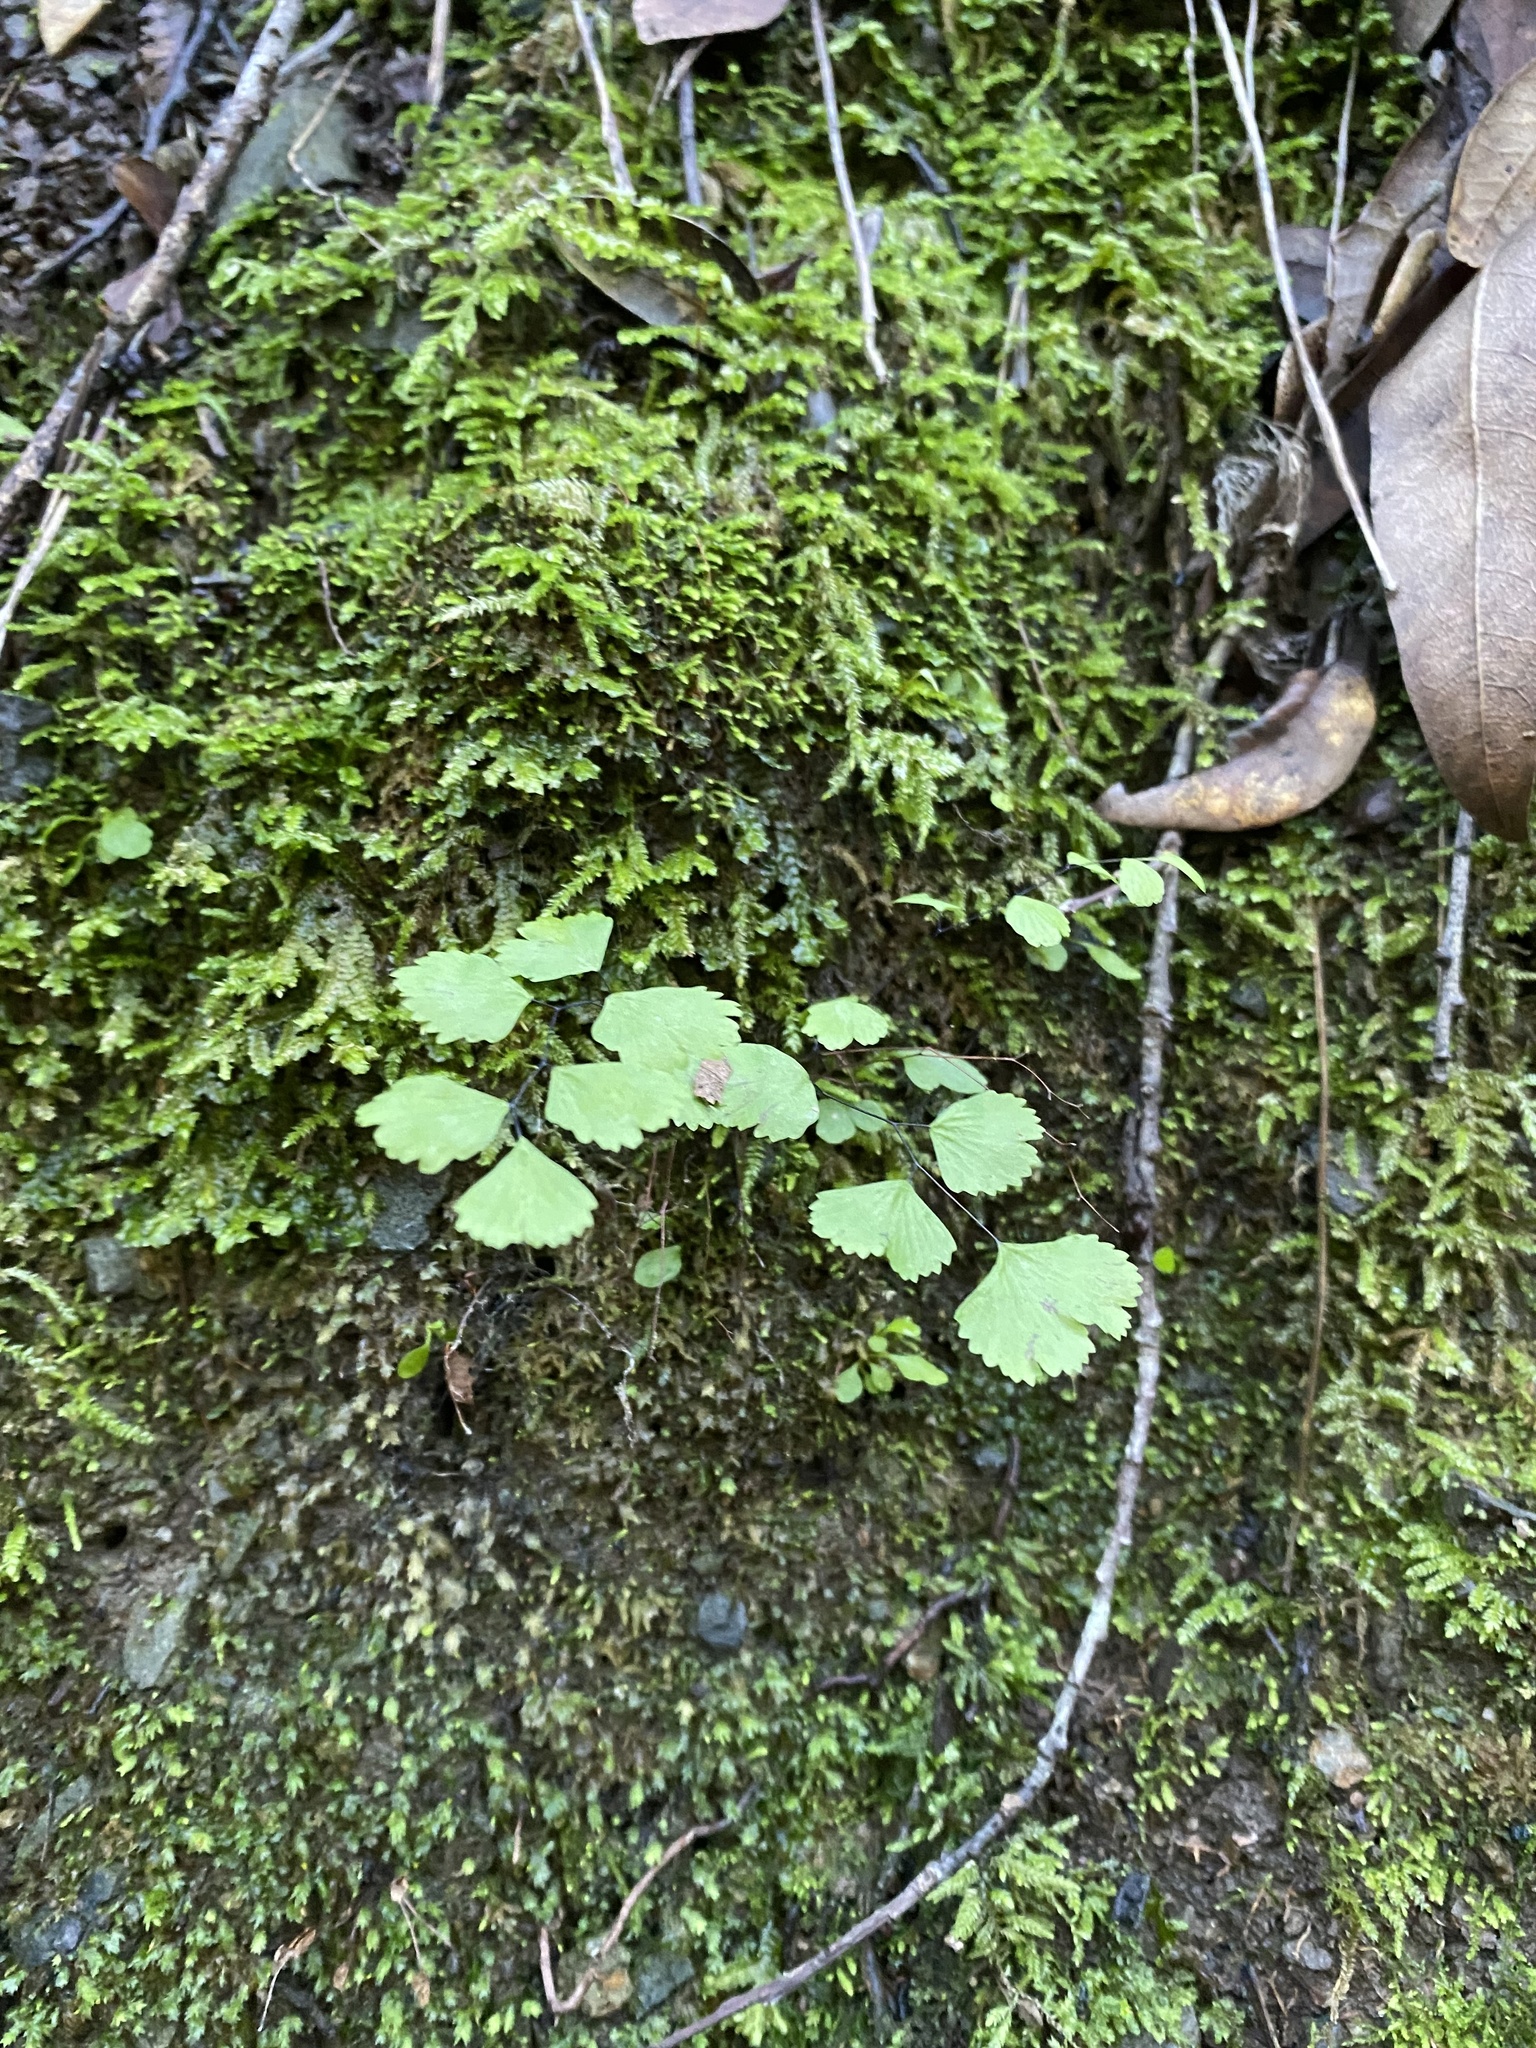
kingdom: Plantae
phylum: Tracheophyta
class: Polypodiopsida
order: Polypodiales
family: Pteridaceae
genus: Adiantum
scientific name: Adiantum jordanii
